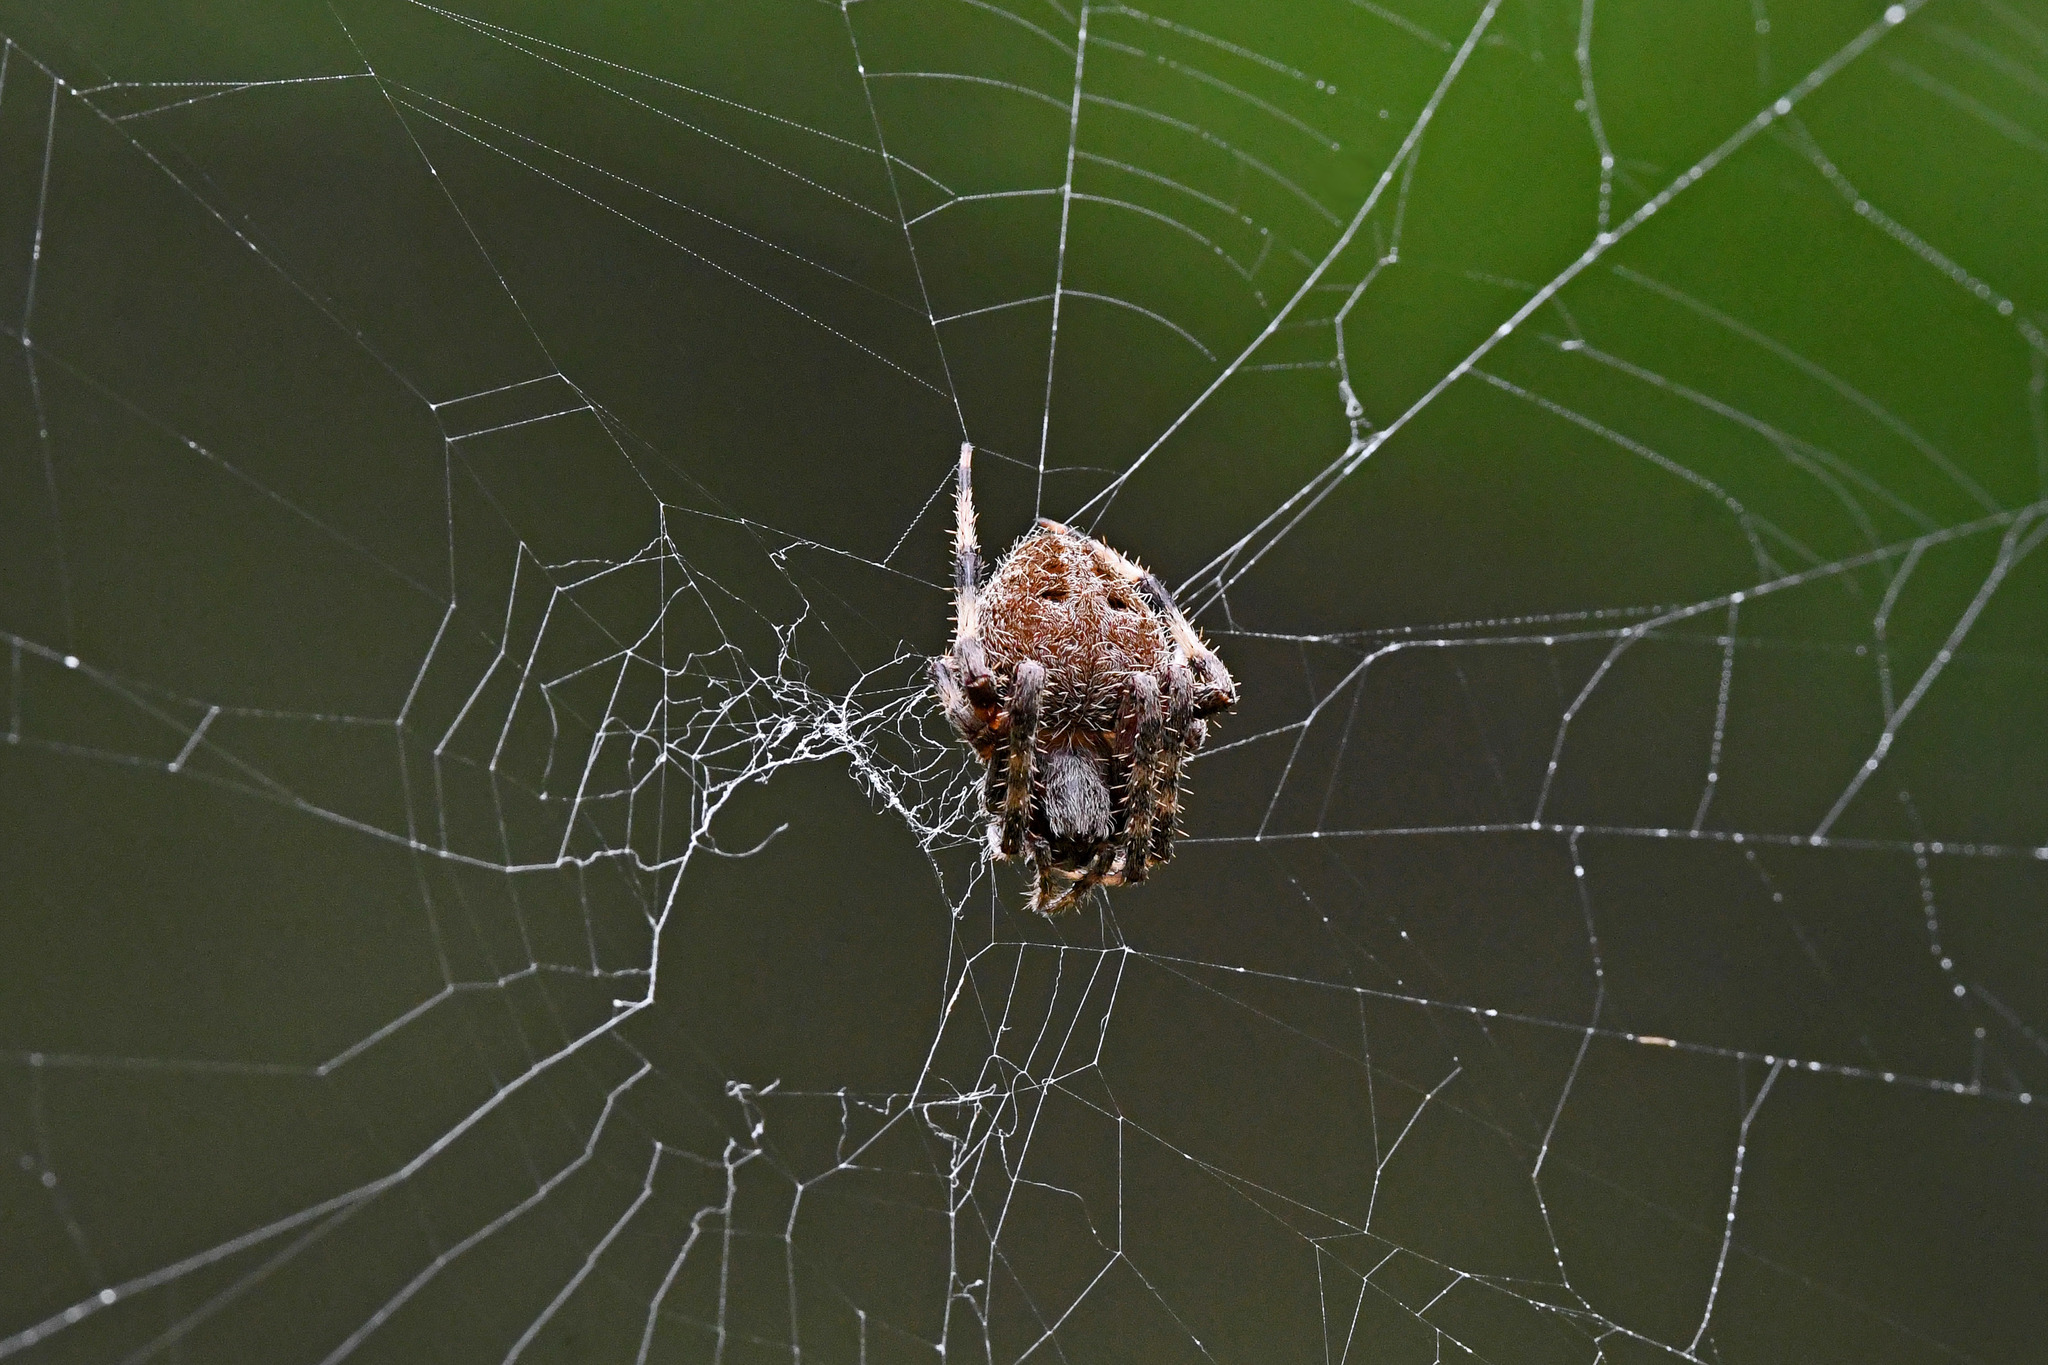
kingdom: Animalia
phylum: Arthropoda
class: Arachnida
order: Araneae
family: Araneidae
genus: Neoscona
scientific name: Neoscona crucifera
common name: Spotted orbweaver
